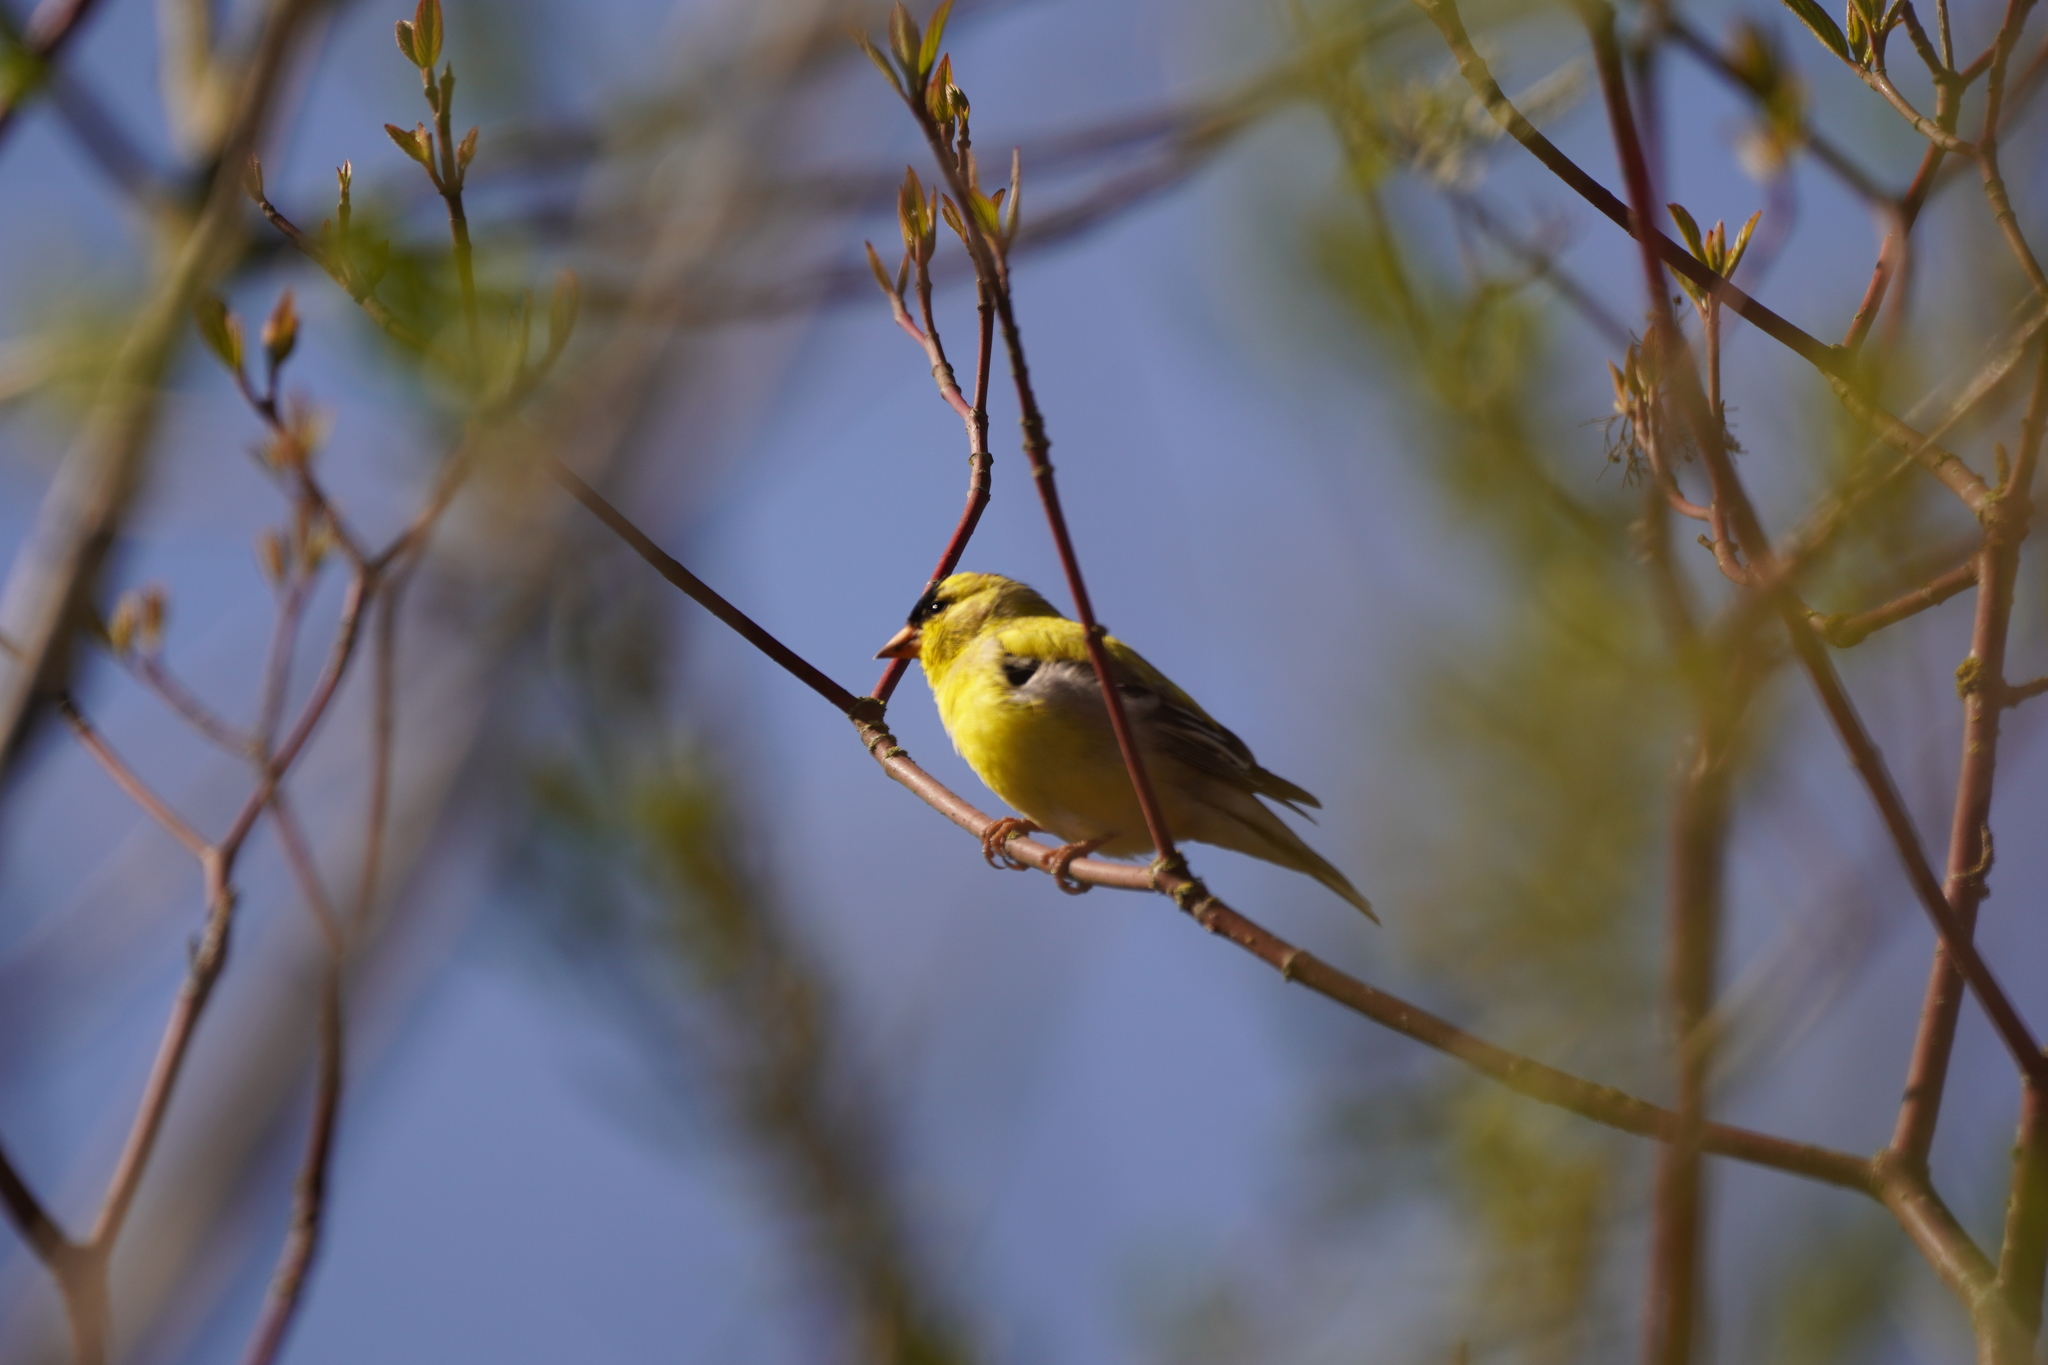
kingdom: Animalia
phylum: Chordata
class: Aves
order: Passeriformes
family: Fringillidae
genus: Spinus
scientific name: Spinus tristis
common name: American goldfinch
